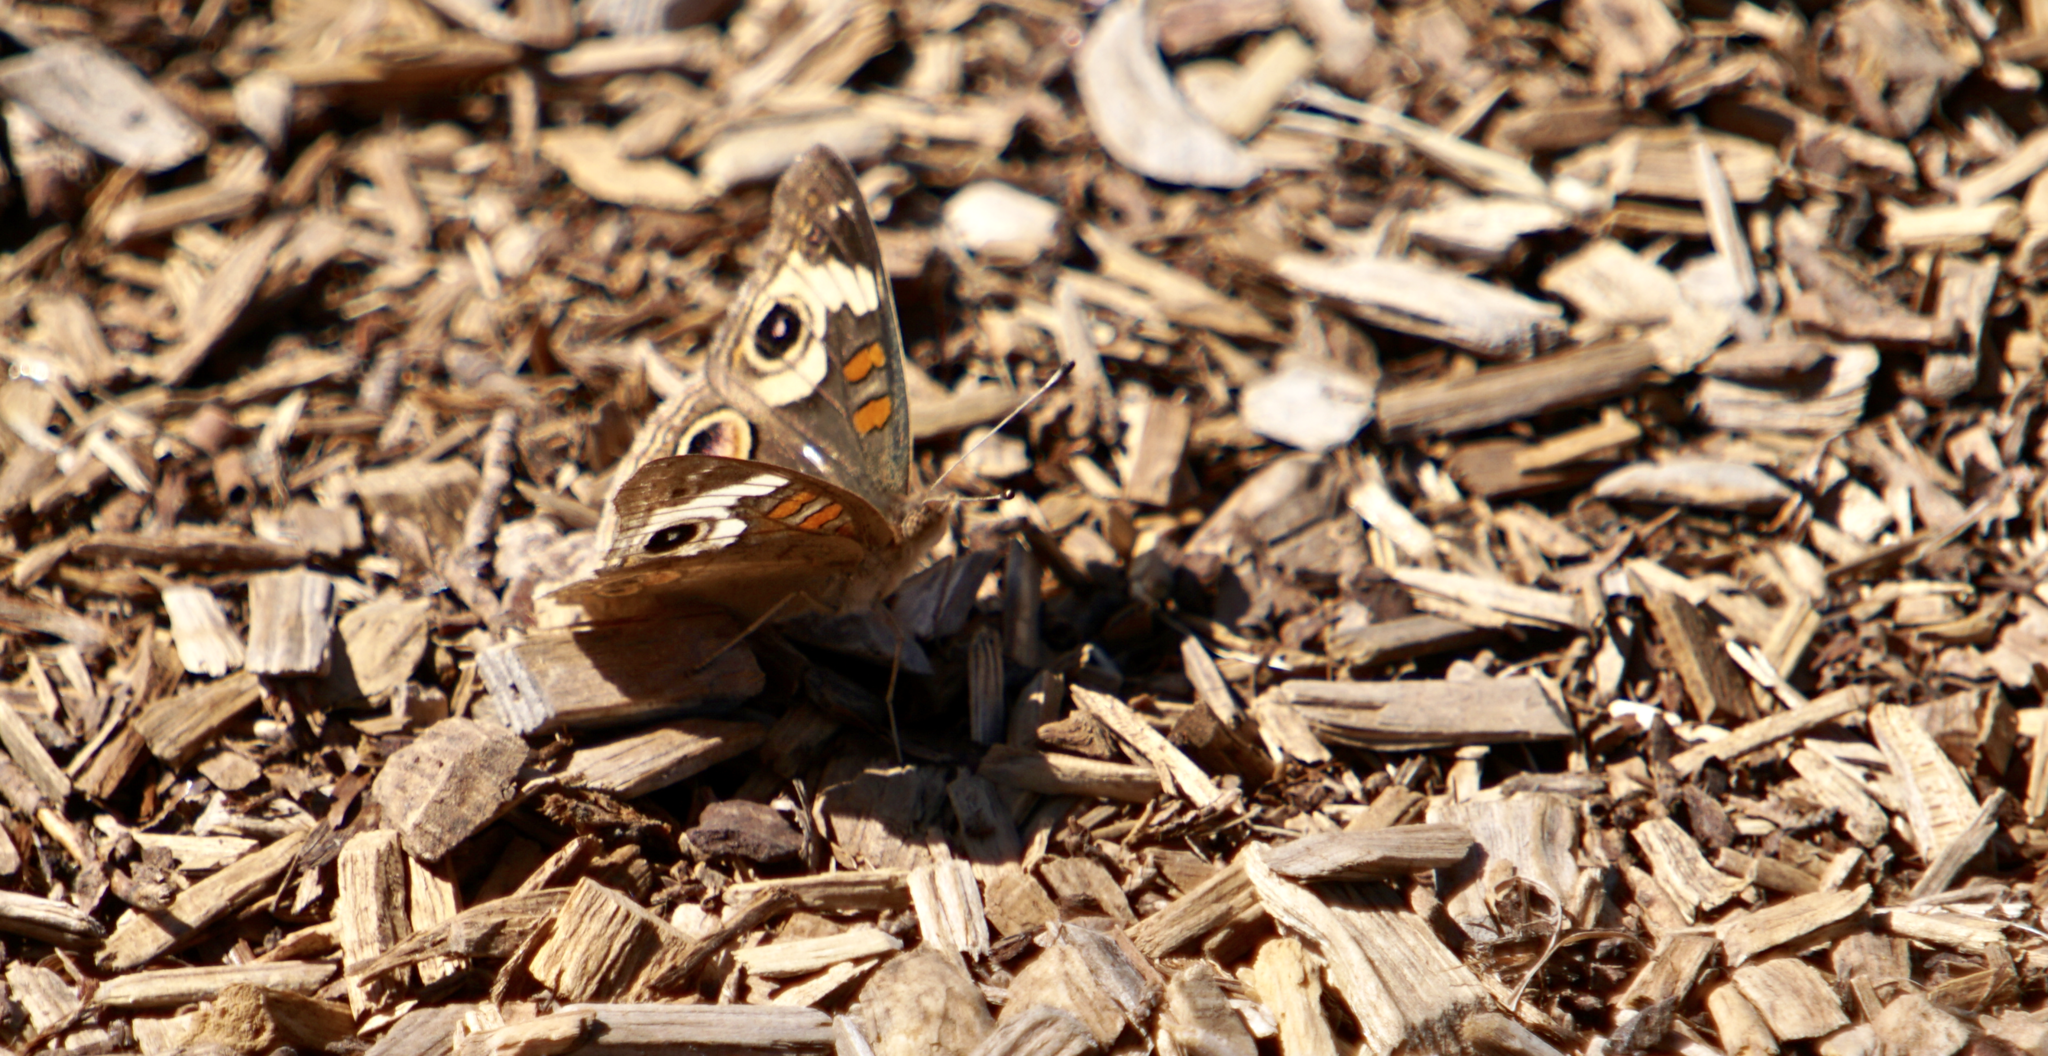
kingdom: Animalia
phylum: Arthropoda
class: Insecta
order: Lepidoptera
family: Nymphalidae
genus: Junonia
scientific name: Junonia grisea
